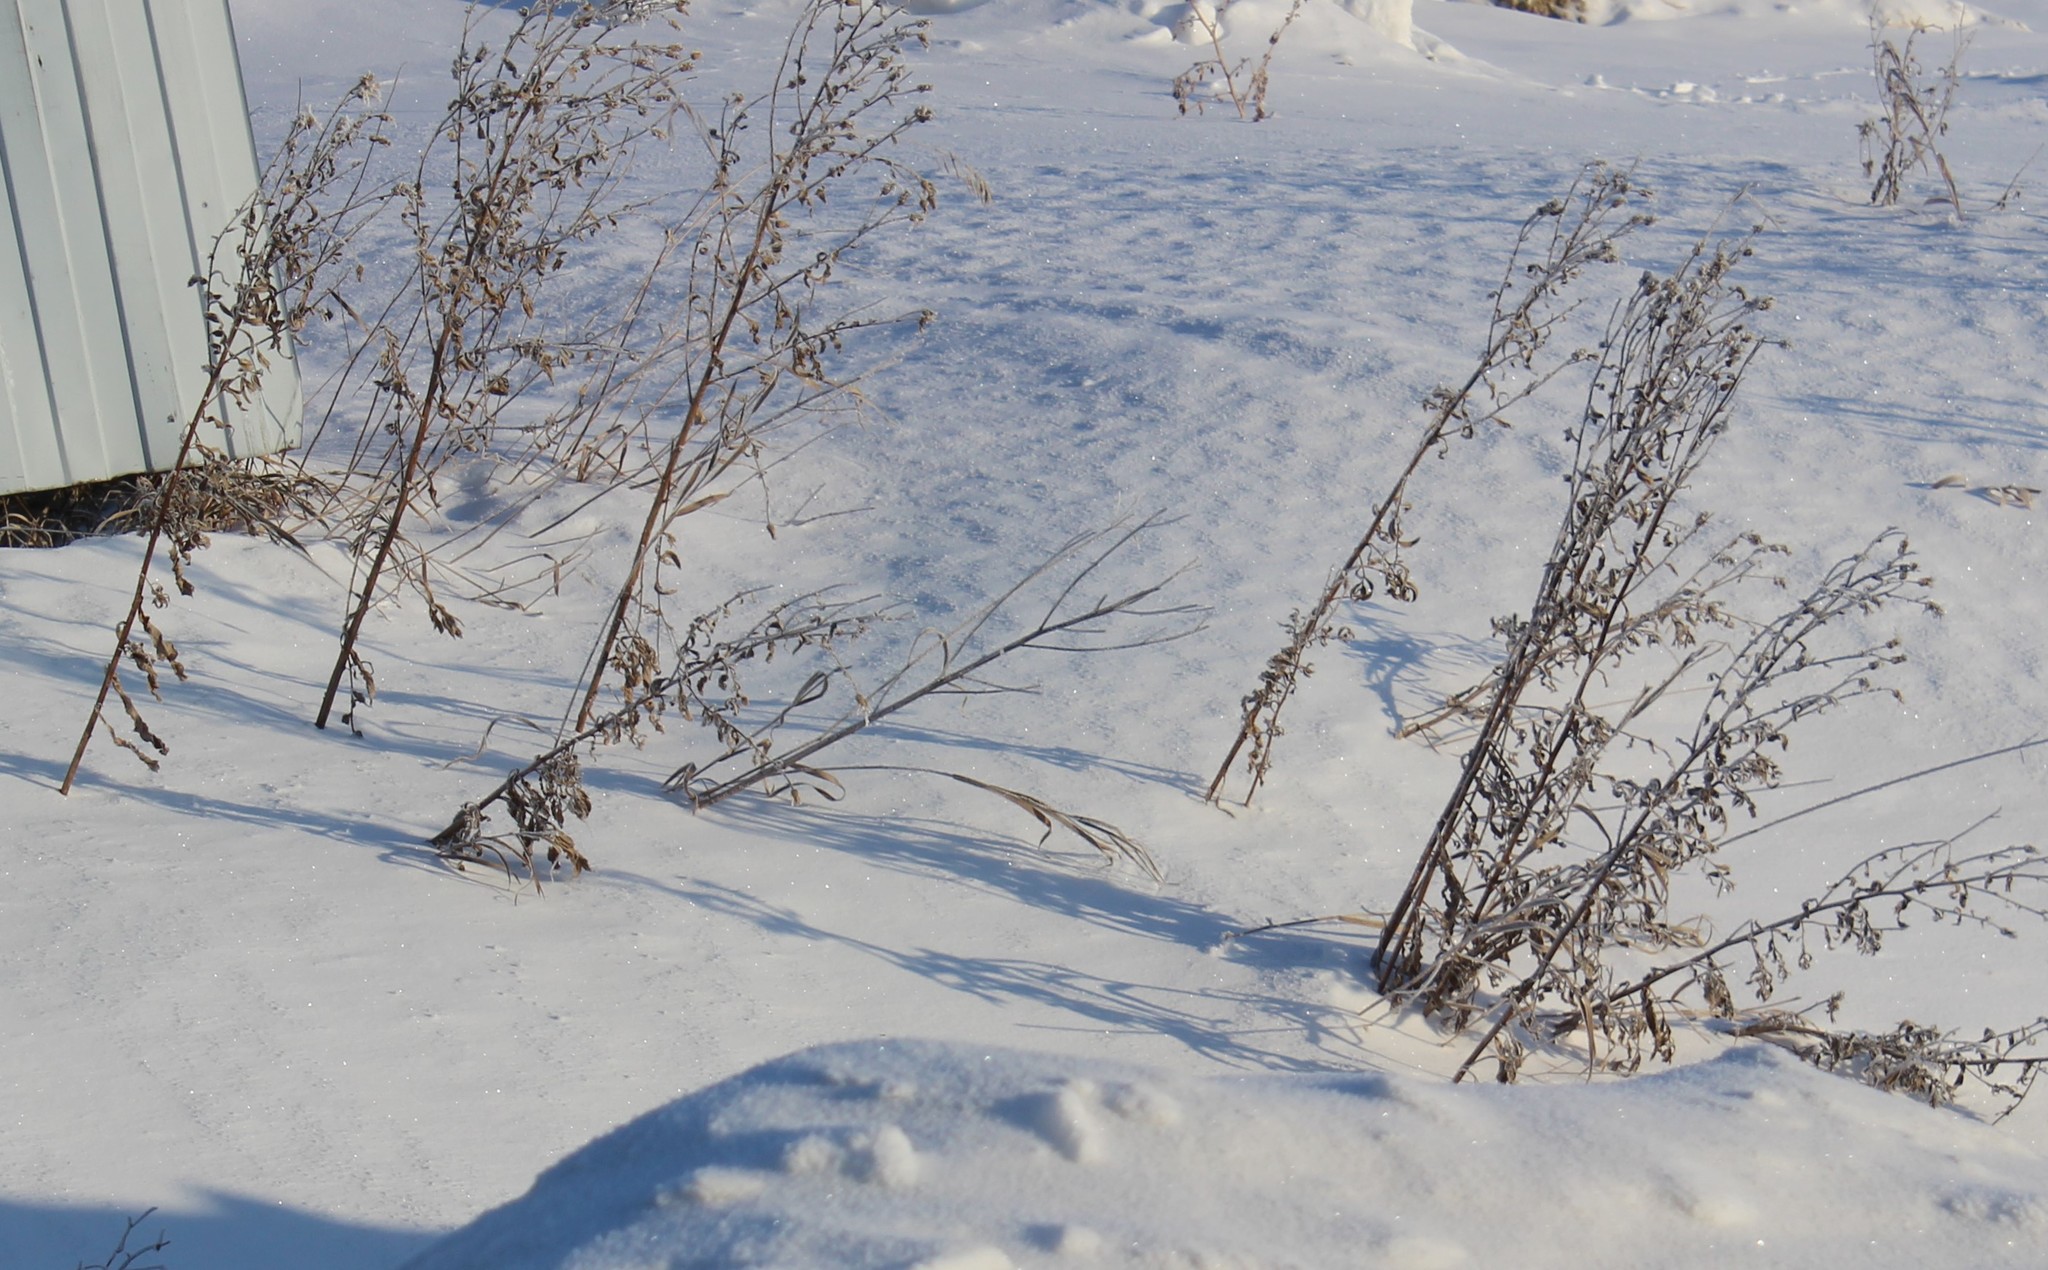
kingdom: Plantae
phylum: Tracheophyta
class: Magnoliopsida
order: Asterales
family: Asteraceae
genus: Cirsium
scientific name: Cirsium arvense
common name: Creeping thistle
